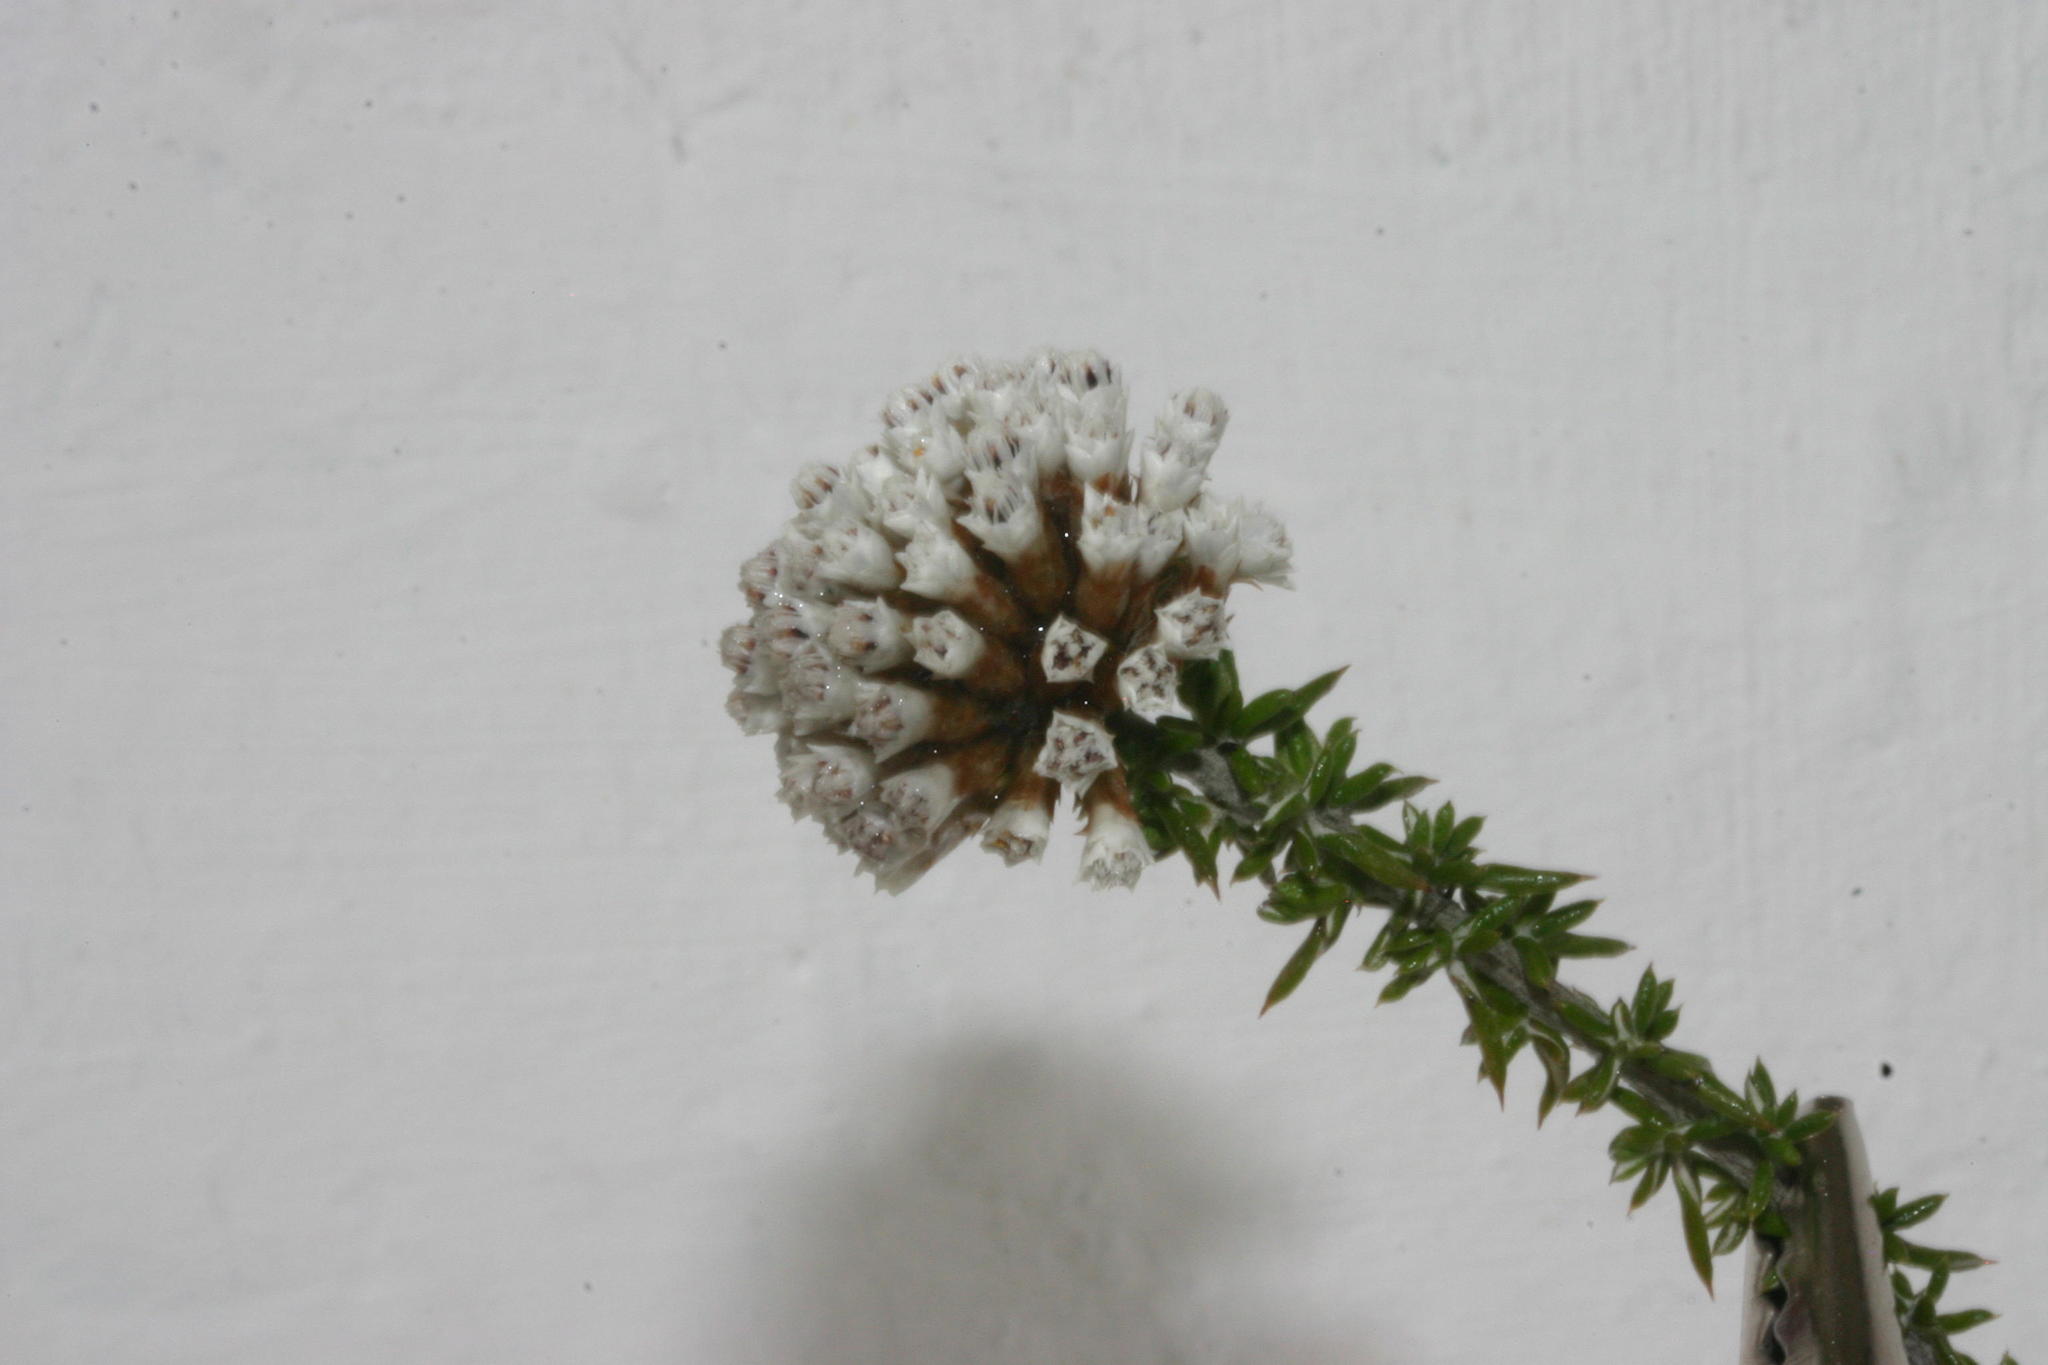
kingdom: Plantae
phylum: Tracheophyta
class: Magnoliopsida
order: Asterales
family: Asteraceae
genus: Metalasia
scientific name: Metalasia massonii
